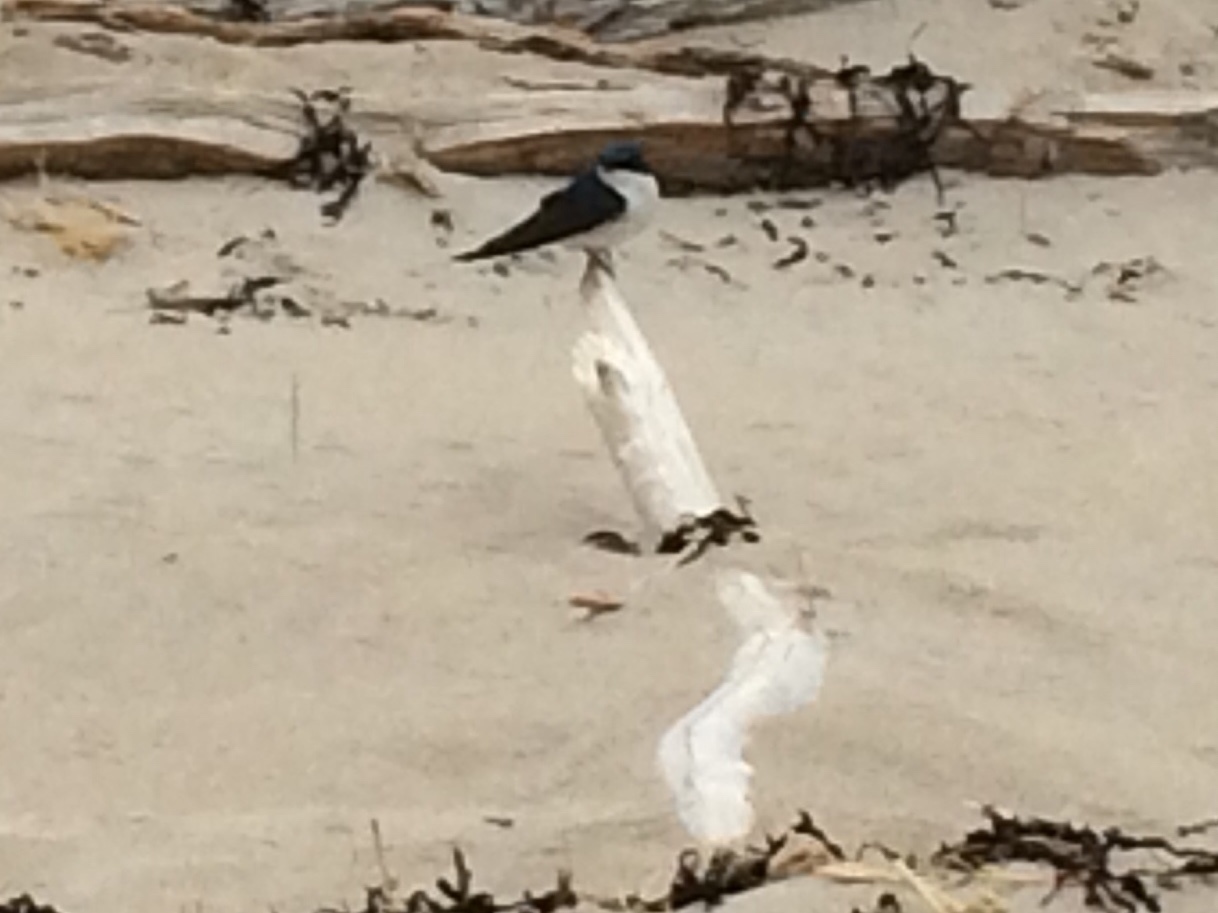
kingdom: Animalia
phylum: Chordata
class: Aves
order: Passeriformes
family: Hirundinidae
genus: Tachycineta
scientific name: Tachycineta bicolor
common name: Tree swallow
